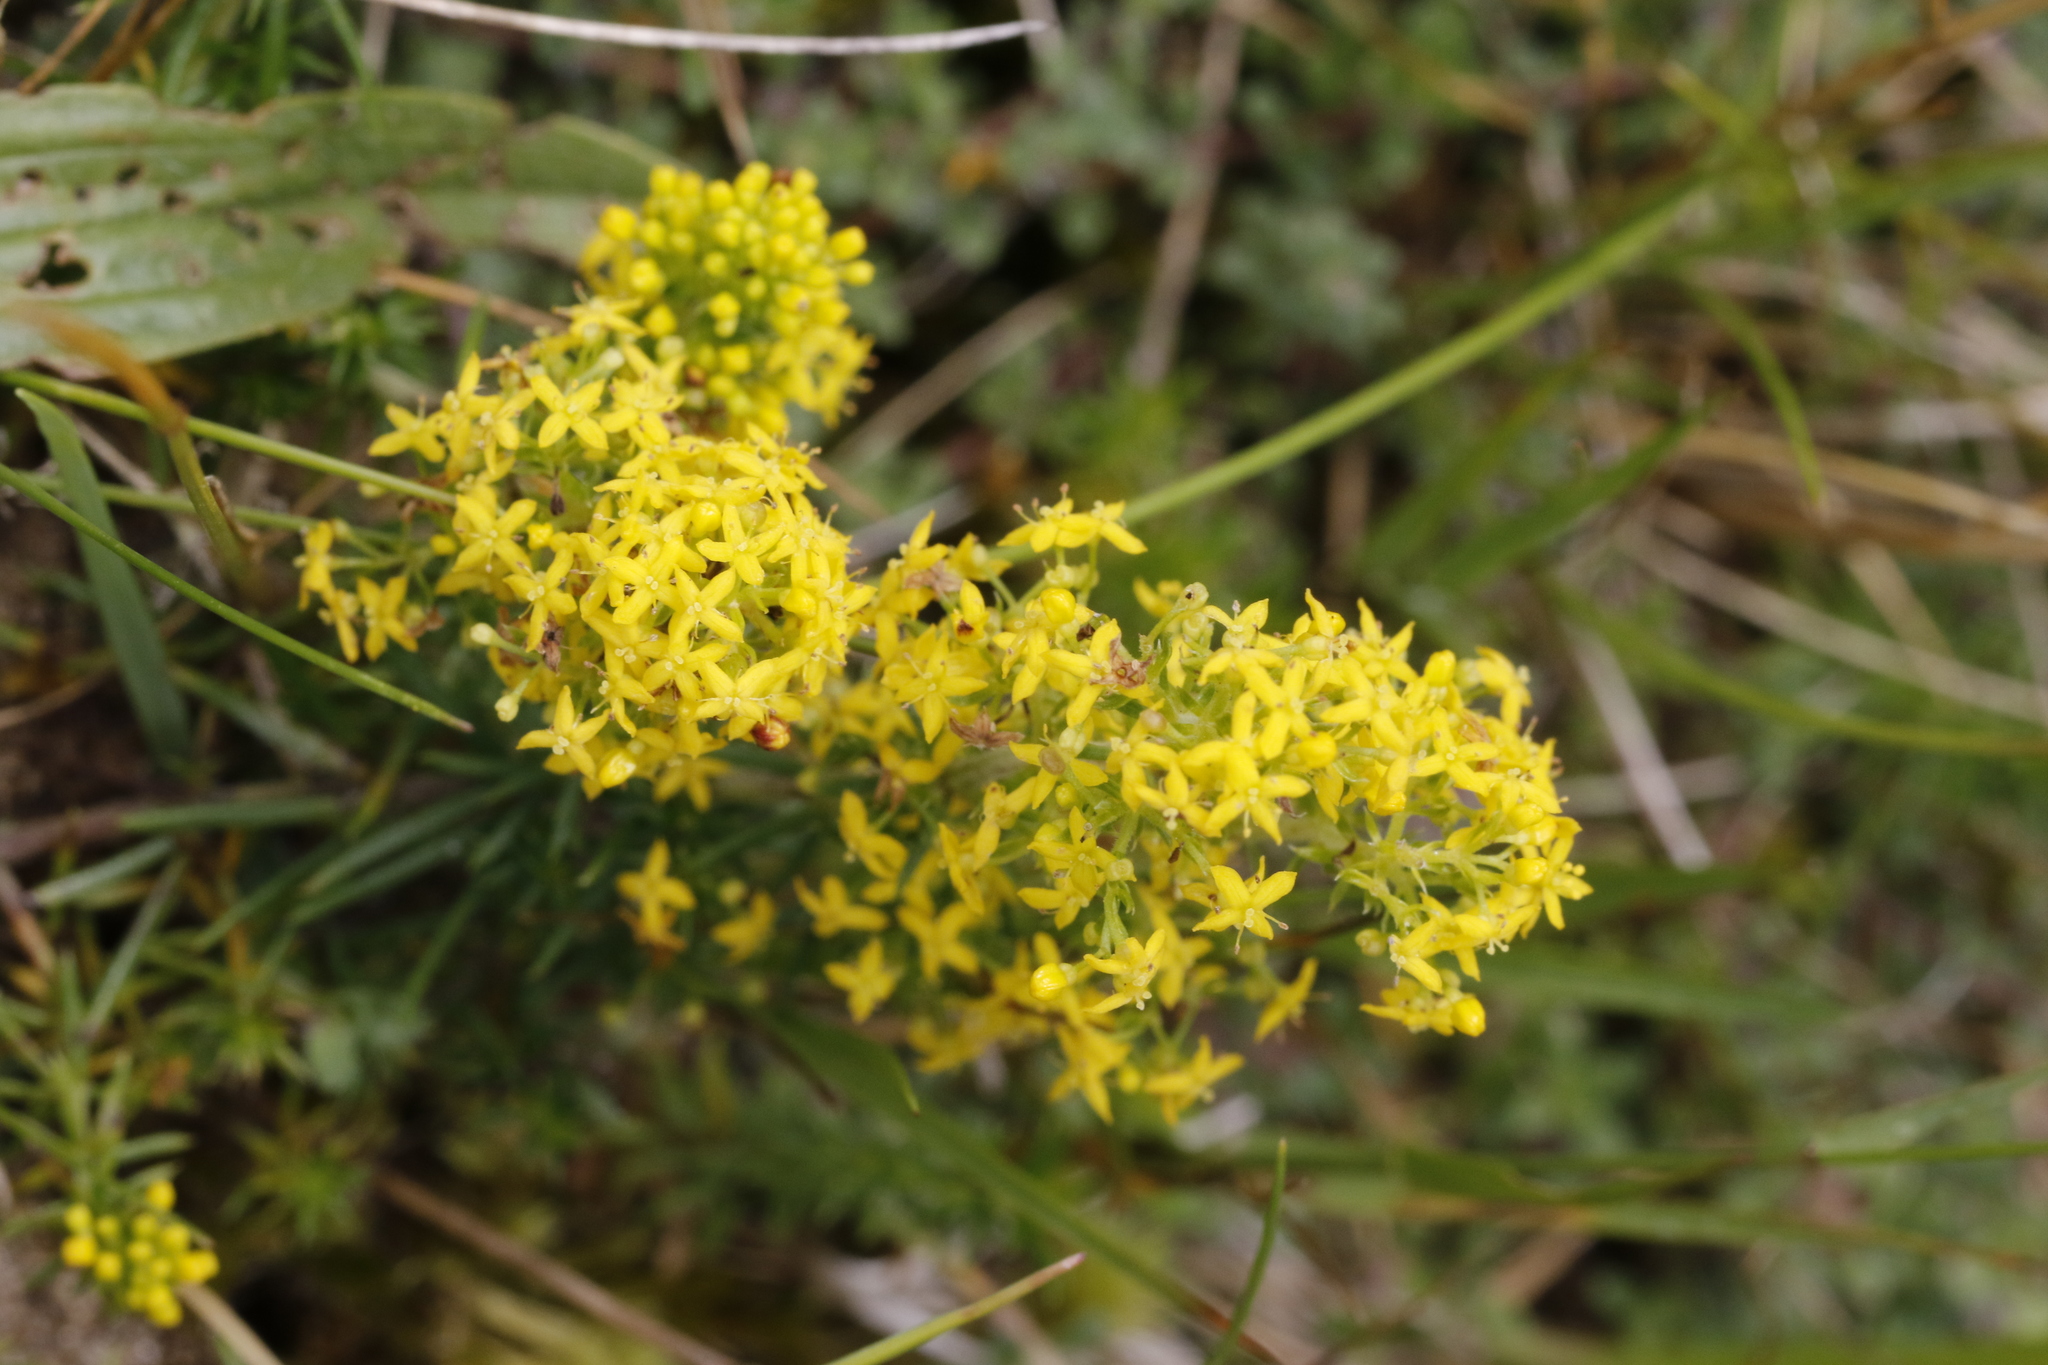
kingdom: Plantae
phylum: Tracheophyta
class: Magnoliopsida
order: Gentianales
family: Rubiaceae
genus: Galium
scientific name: Galium verum
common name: Lady's bedstraw
